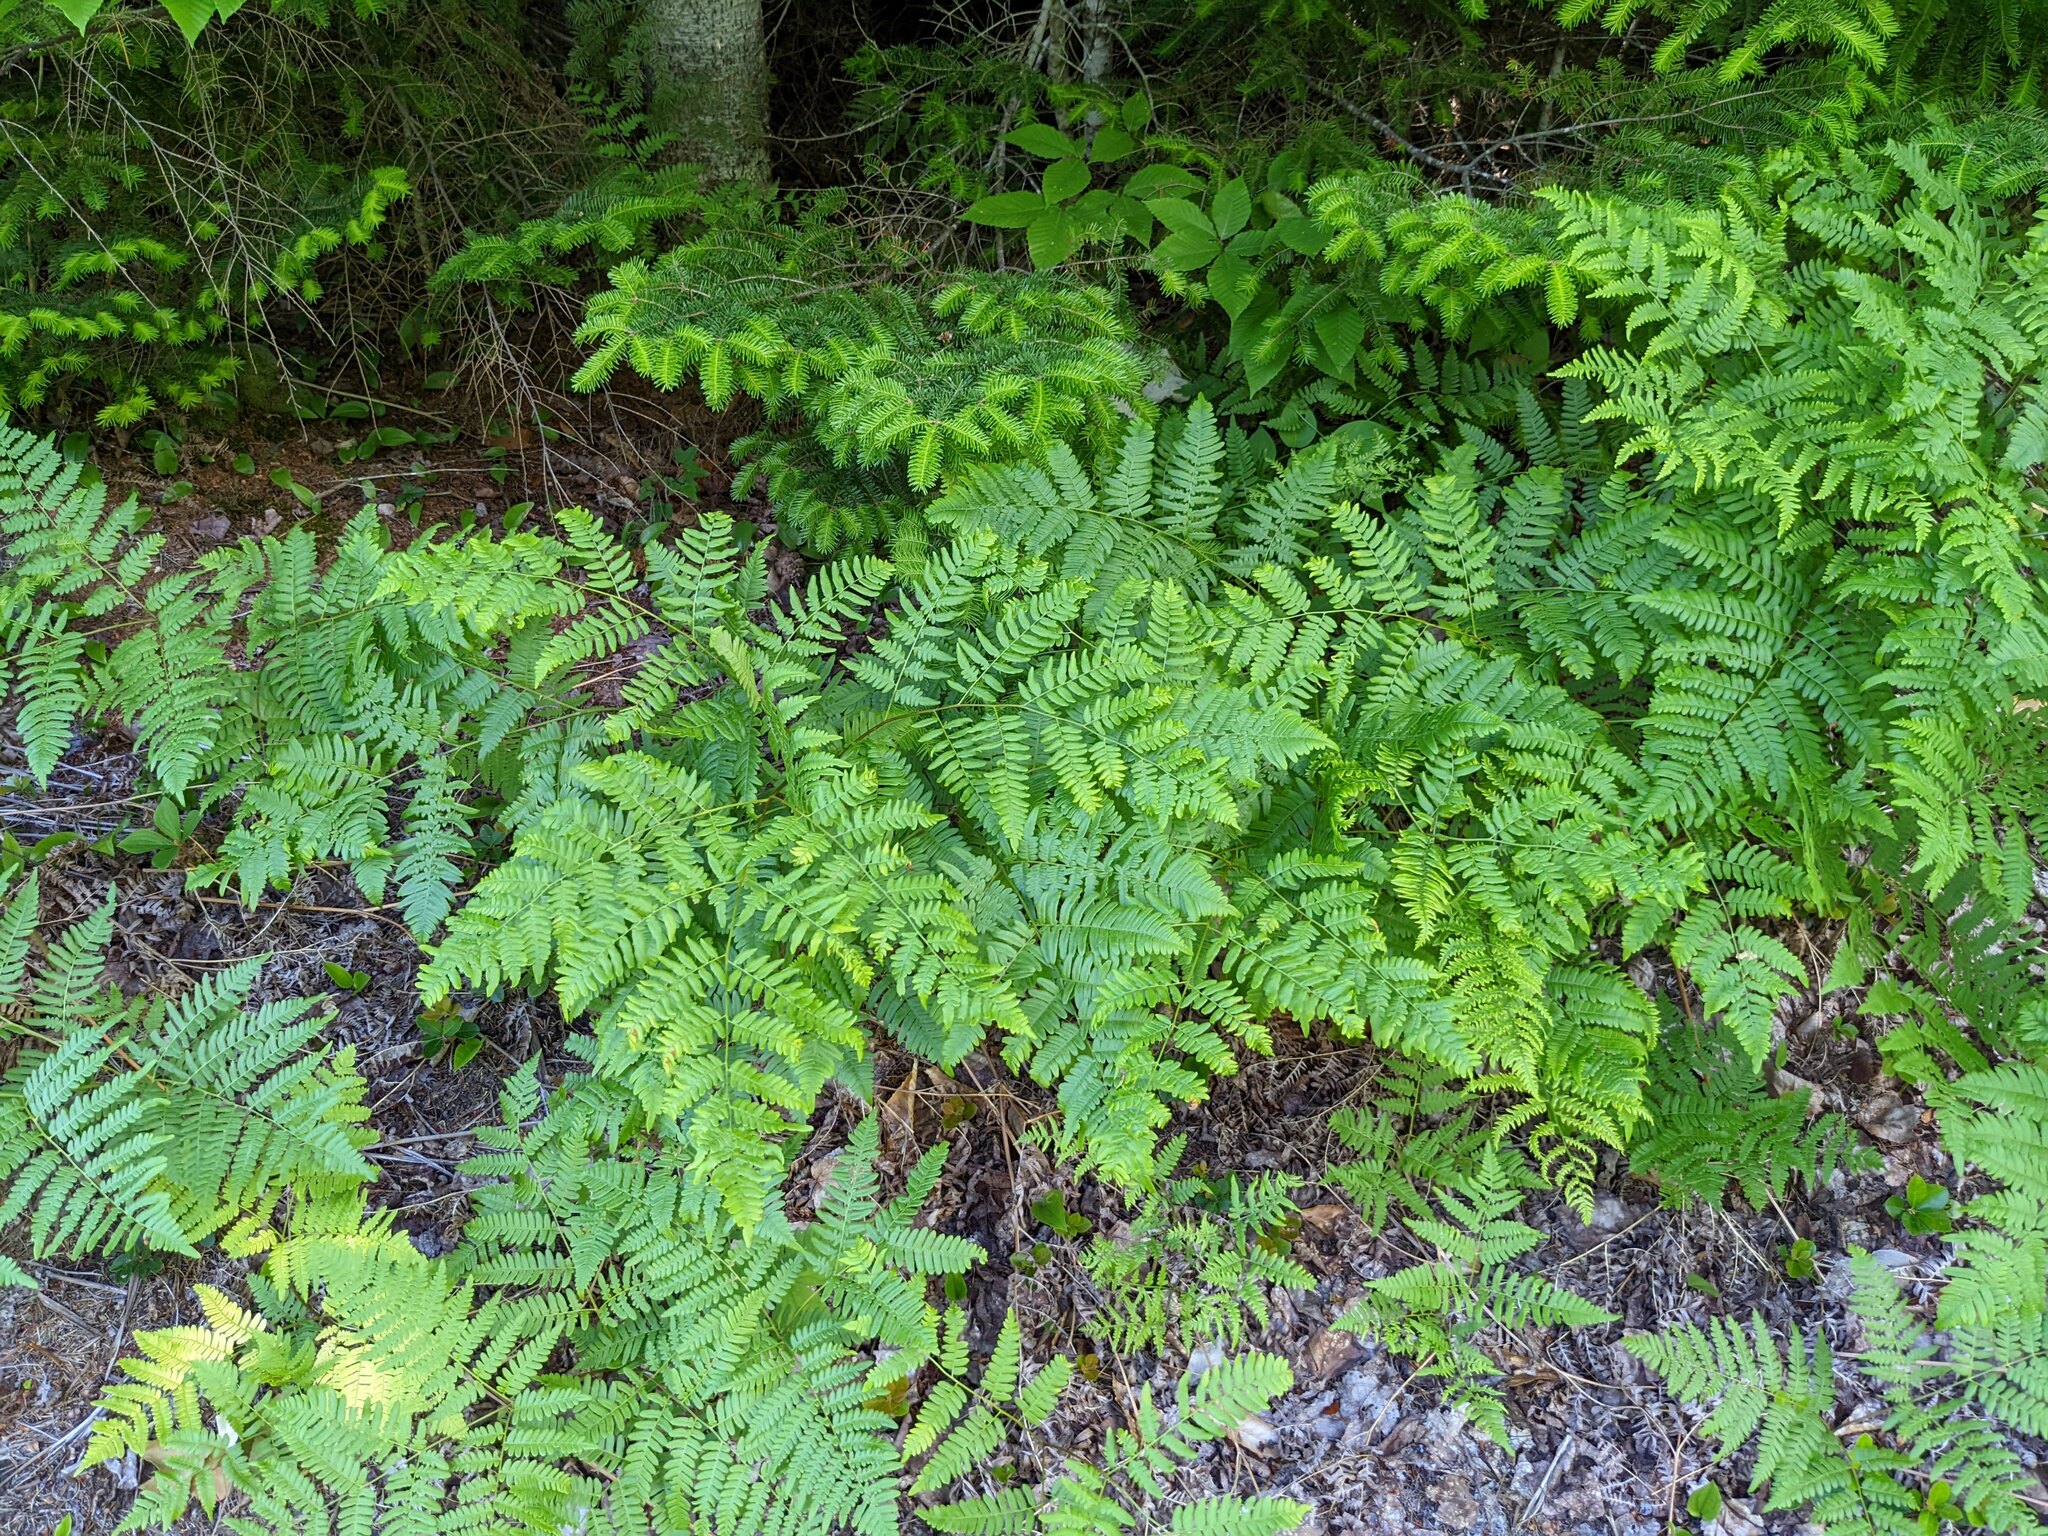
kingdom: Plantae
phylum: Tracheophyta
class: Polypodiopsida
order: Polypodiales
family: Dennstaedtiaceae
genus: Pteridium
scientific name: Pteridium aquilinum
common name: Bracken
